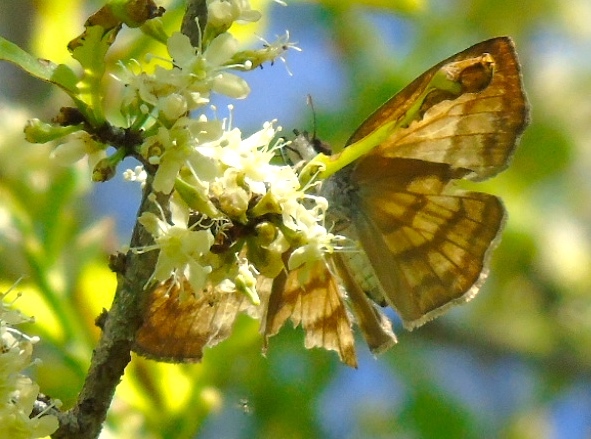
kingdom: Animalia
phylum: Arthropoda
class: Insecta
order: Lepidoptera
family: Hesperiidae
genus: Timochares
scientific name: Timochares trifasciata
